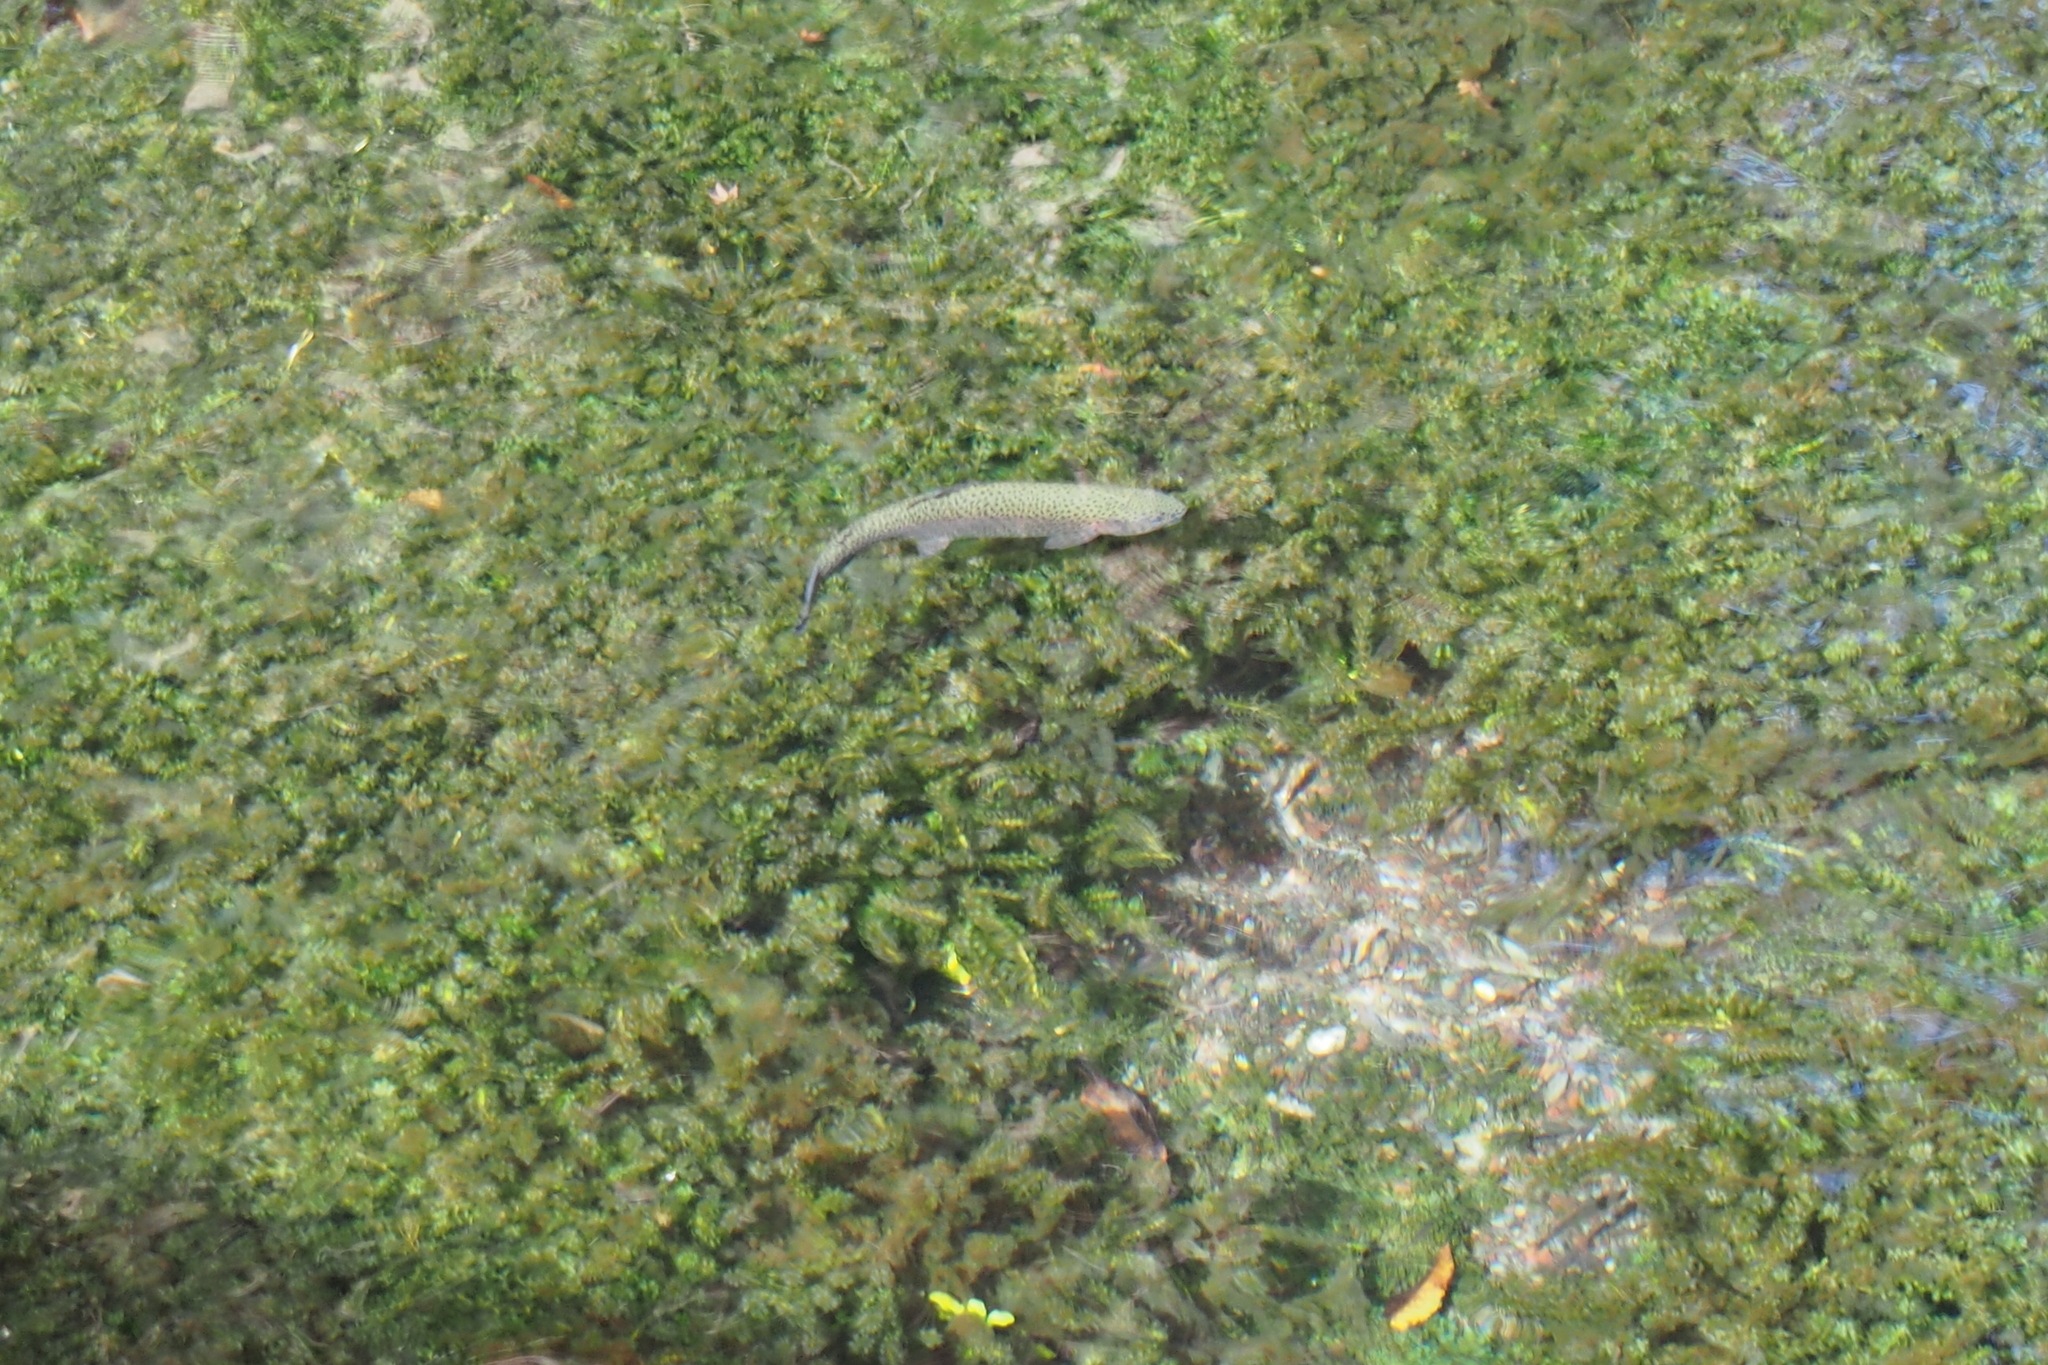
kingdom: Animalia
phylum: Chordata
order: Salmoniformes
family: Salmonidae
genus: Oncorhynchus
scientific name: Oncorhynchus mykiss
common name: Rainbow trout
